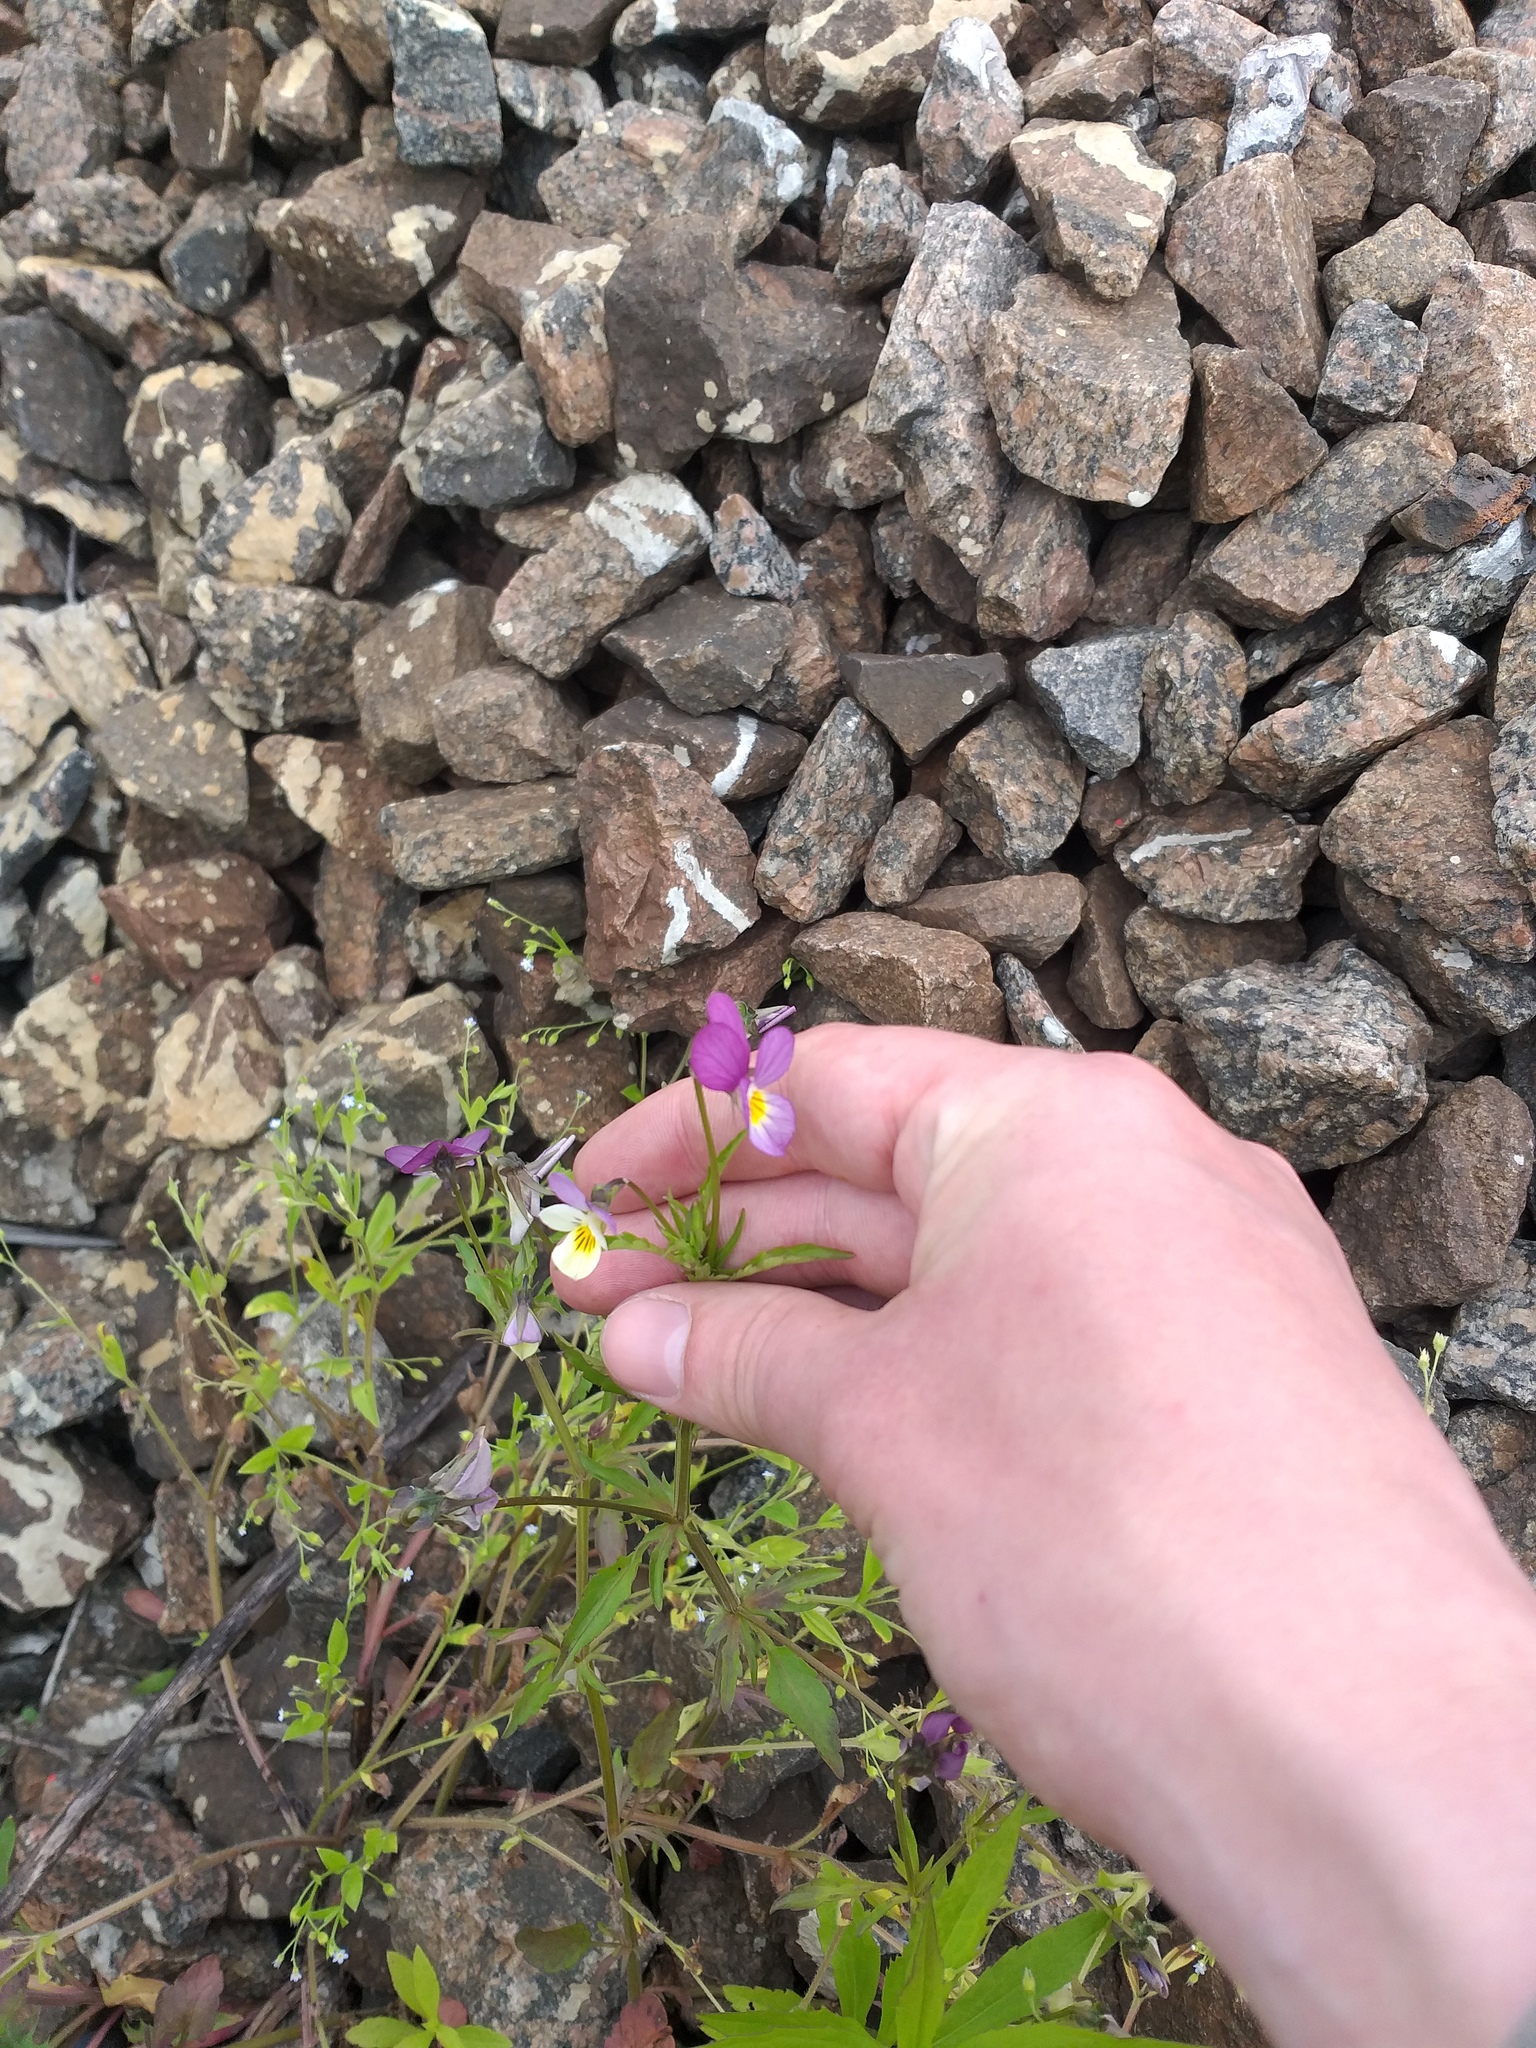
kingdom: Plantae
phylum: Tracheophyta
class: Magnoliopsida
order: Malpighiales
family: Violaceae
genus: Viola
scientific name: Viola tricolor
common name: Pansy
